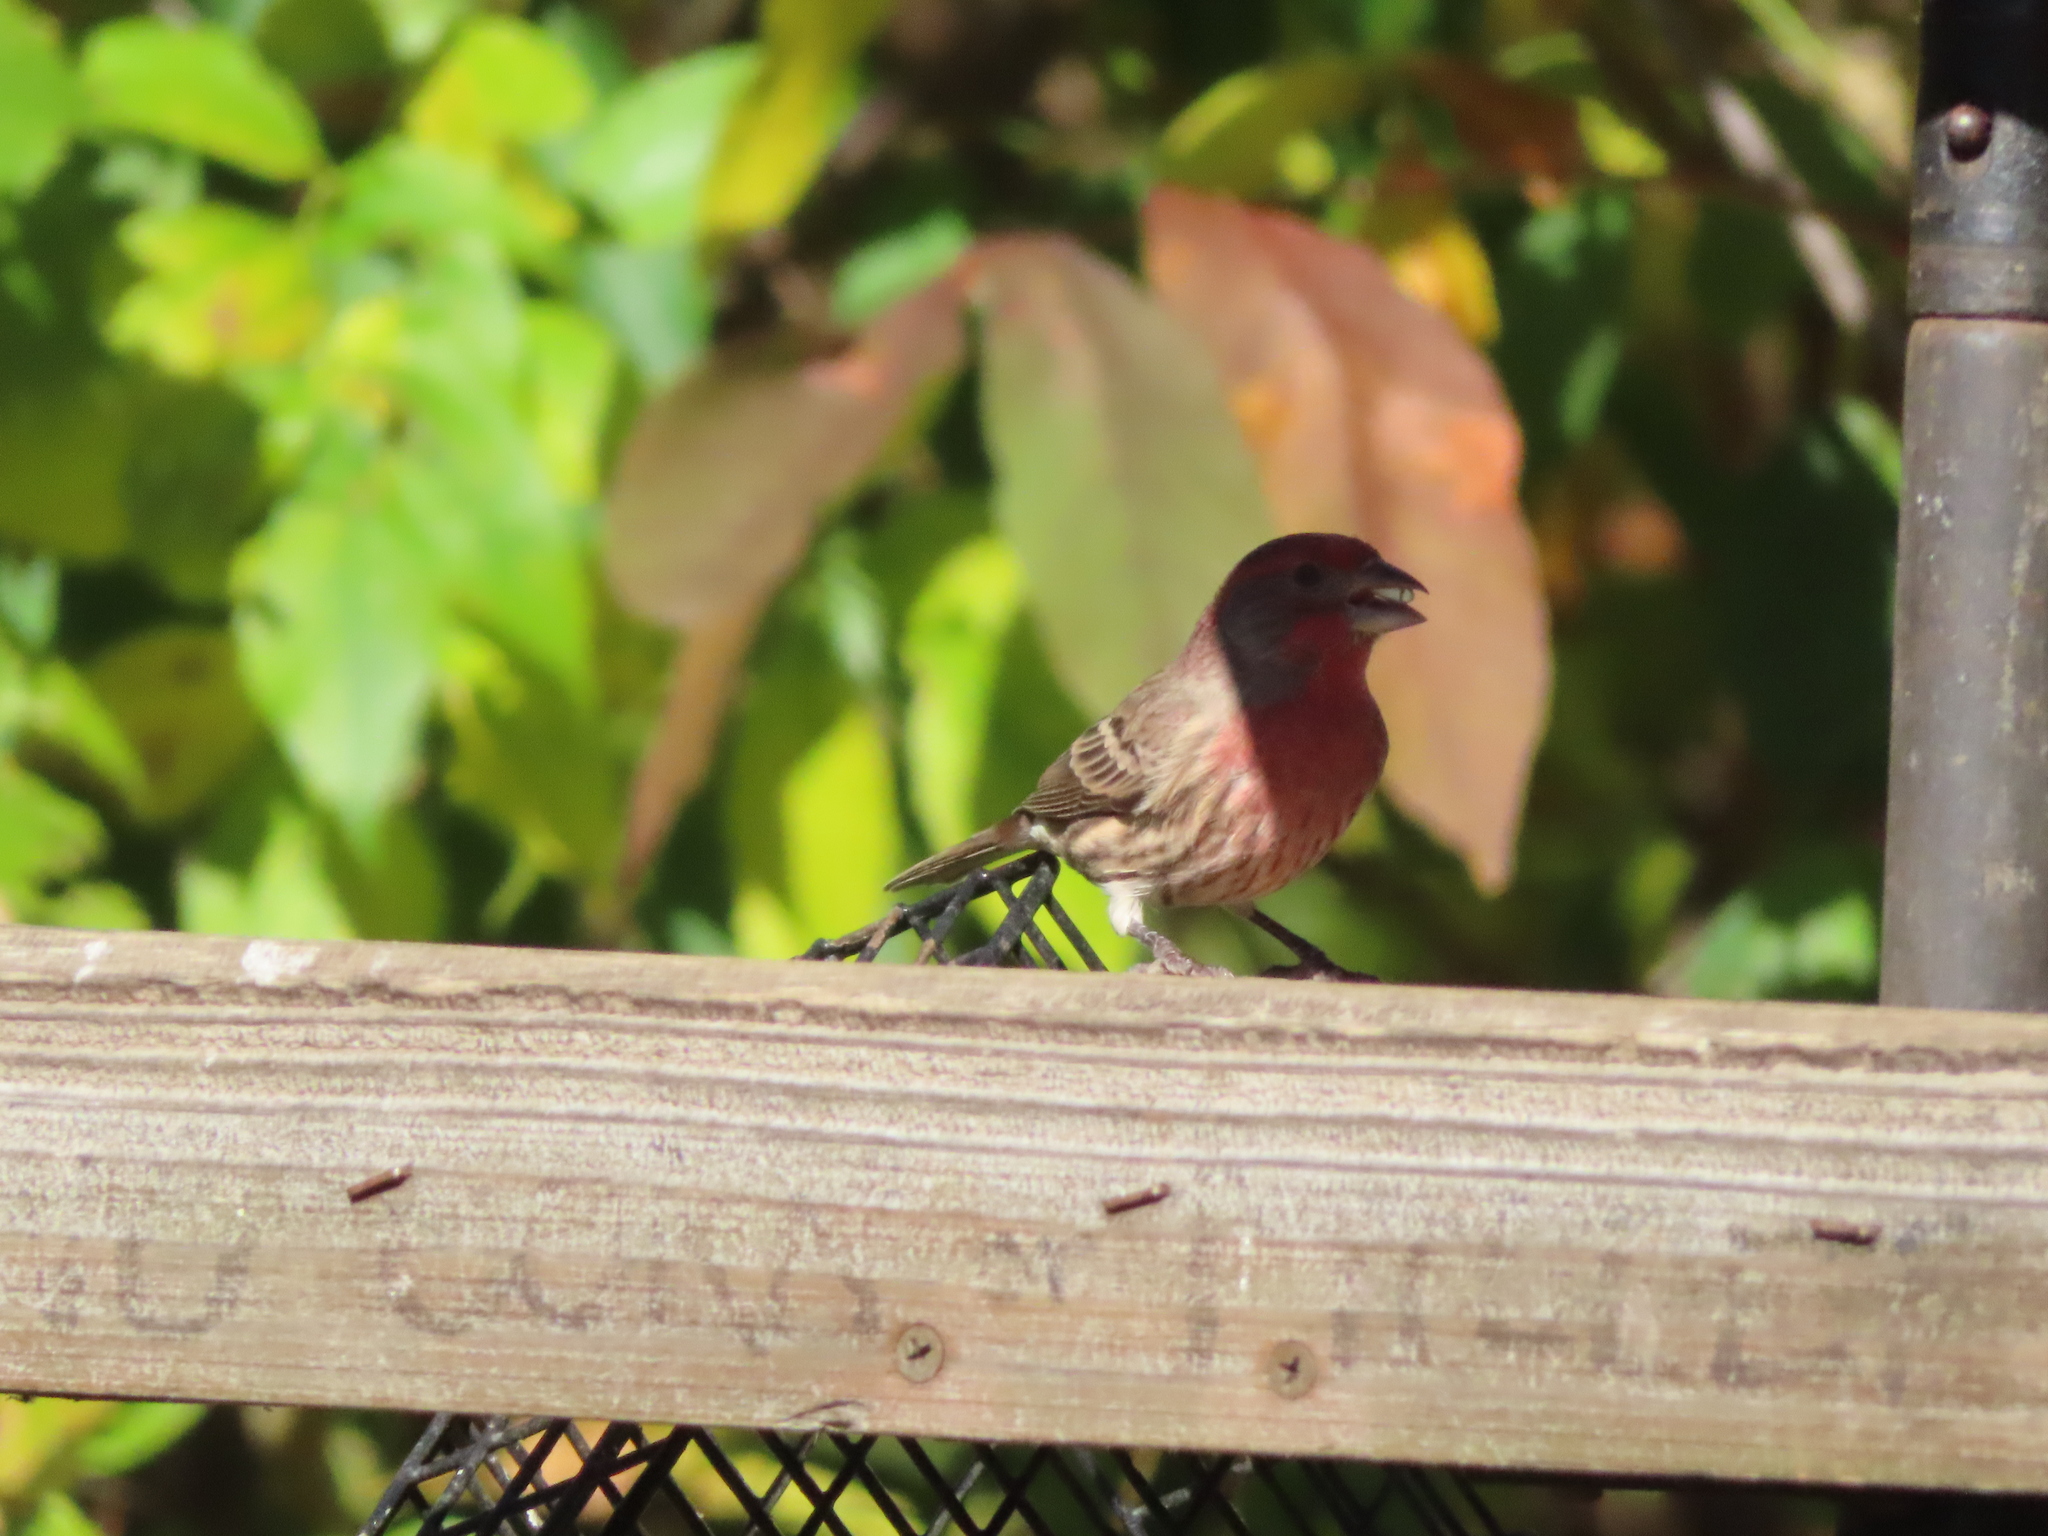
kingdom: Animalia
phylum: Chordata
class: Aves
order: Passeriformes
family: Fringillidae
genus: Haemorhous
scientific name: Haemorhous mexicanus
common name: House finch
